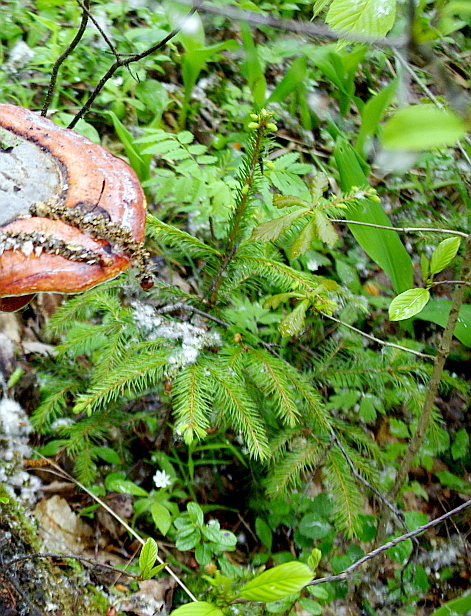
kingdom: Plantae
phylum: Tracheophyta
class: Pinopsida
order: Pinales
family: Pinaceae
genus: Picea
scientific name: Picea abies
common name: Norway spruce
